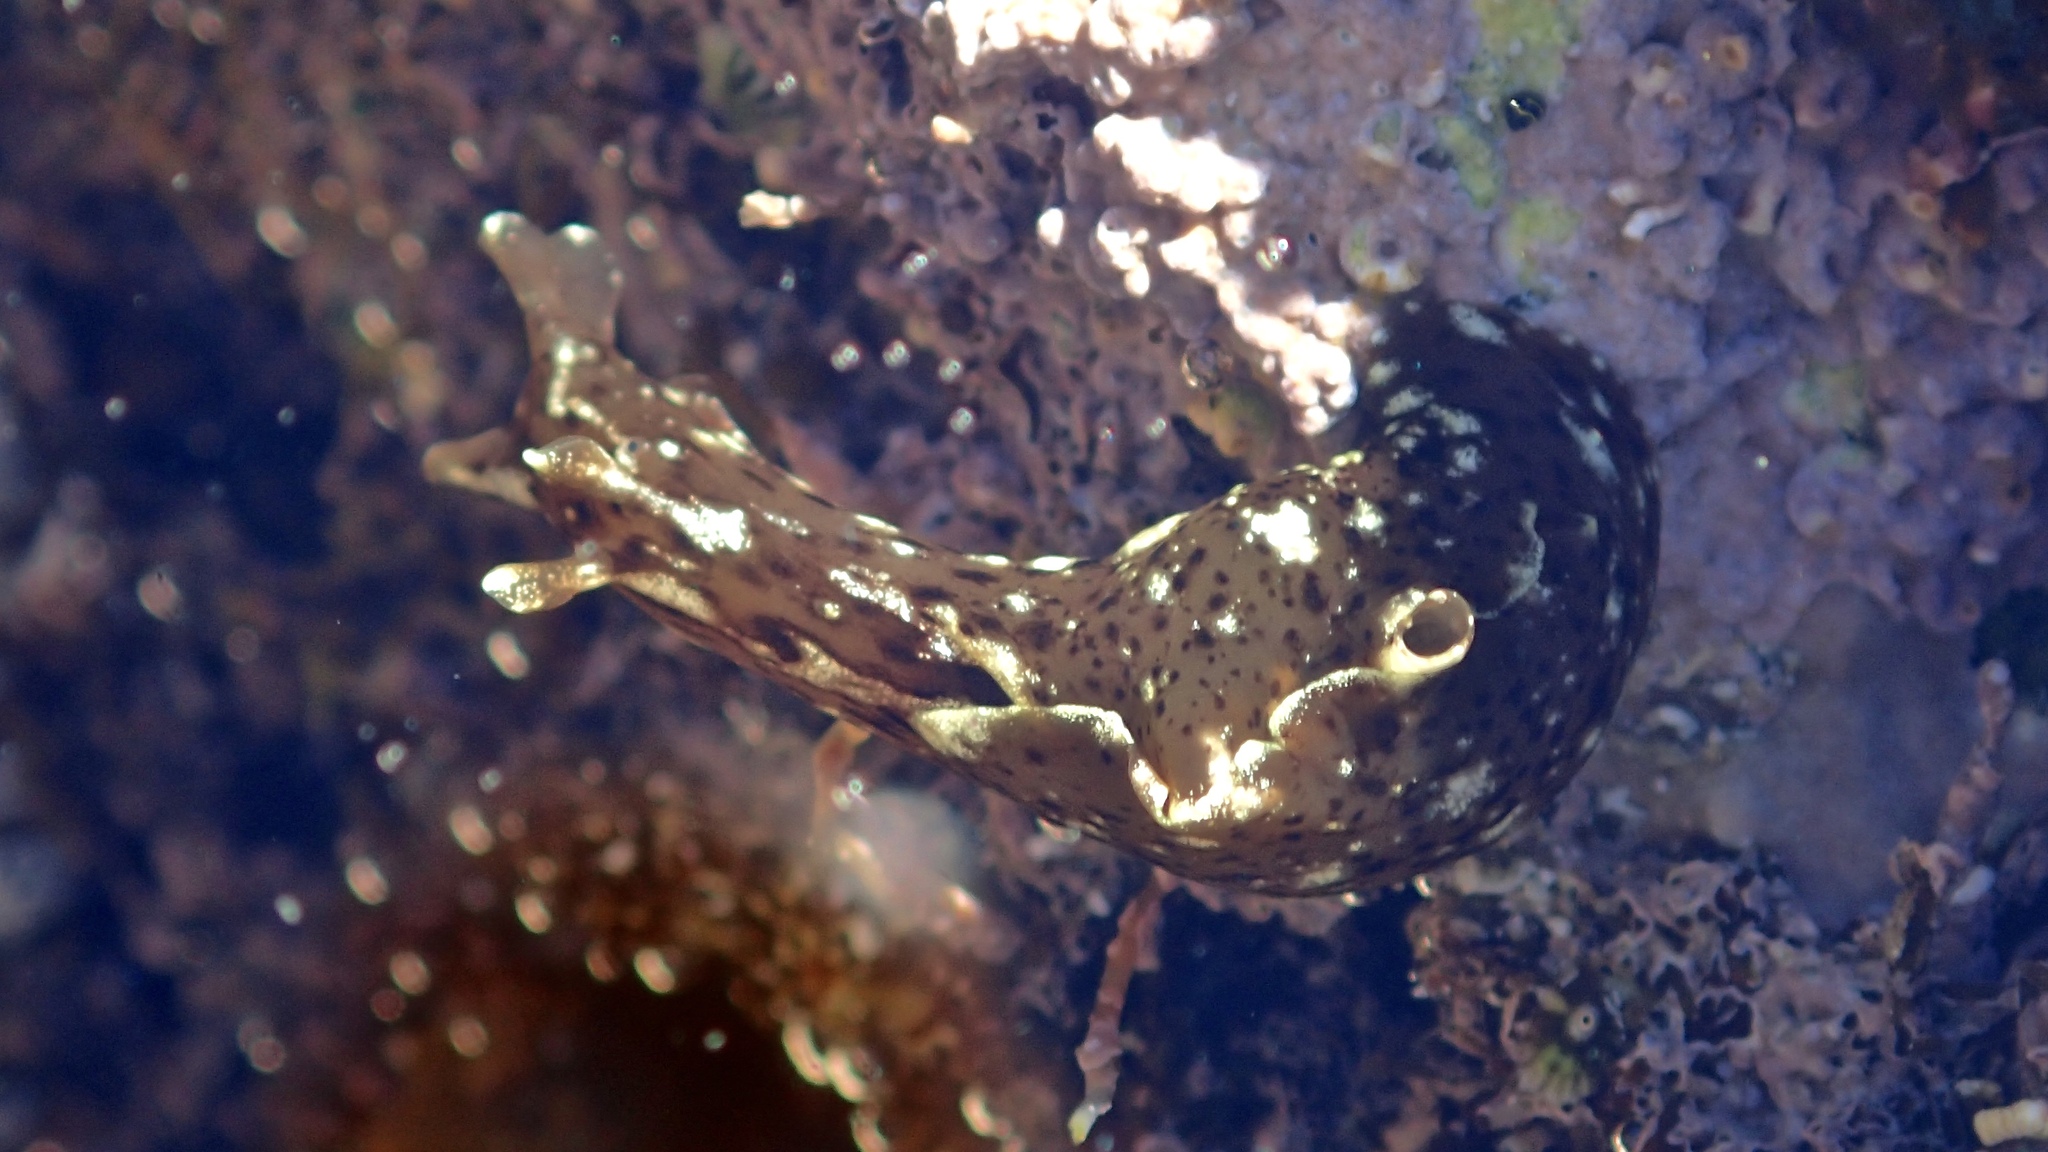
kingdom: Animalia
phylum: Mollusca
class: Gastropoda
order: Aplysiida
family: Aplysiidae
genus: Aplysia
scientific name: Aplysia californica
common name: California seahare
